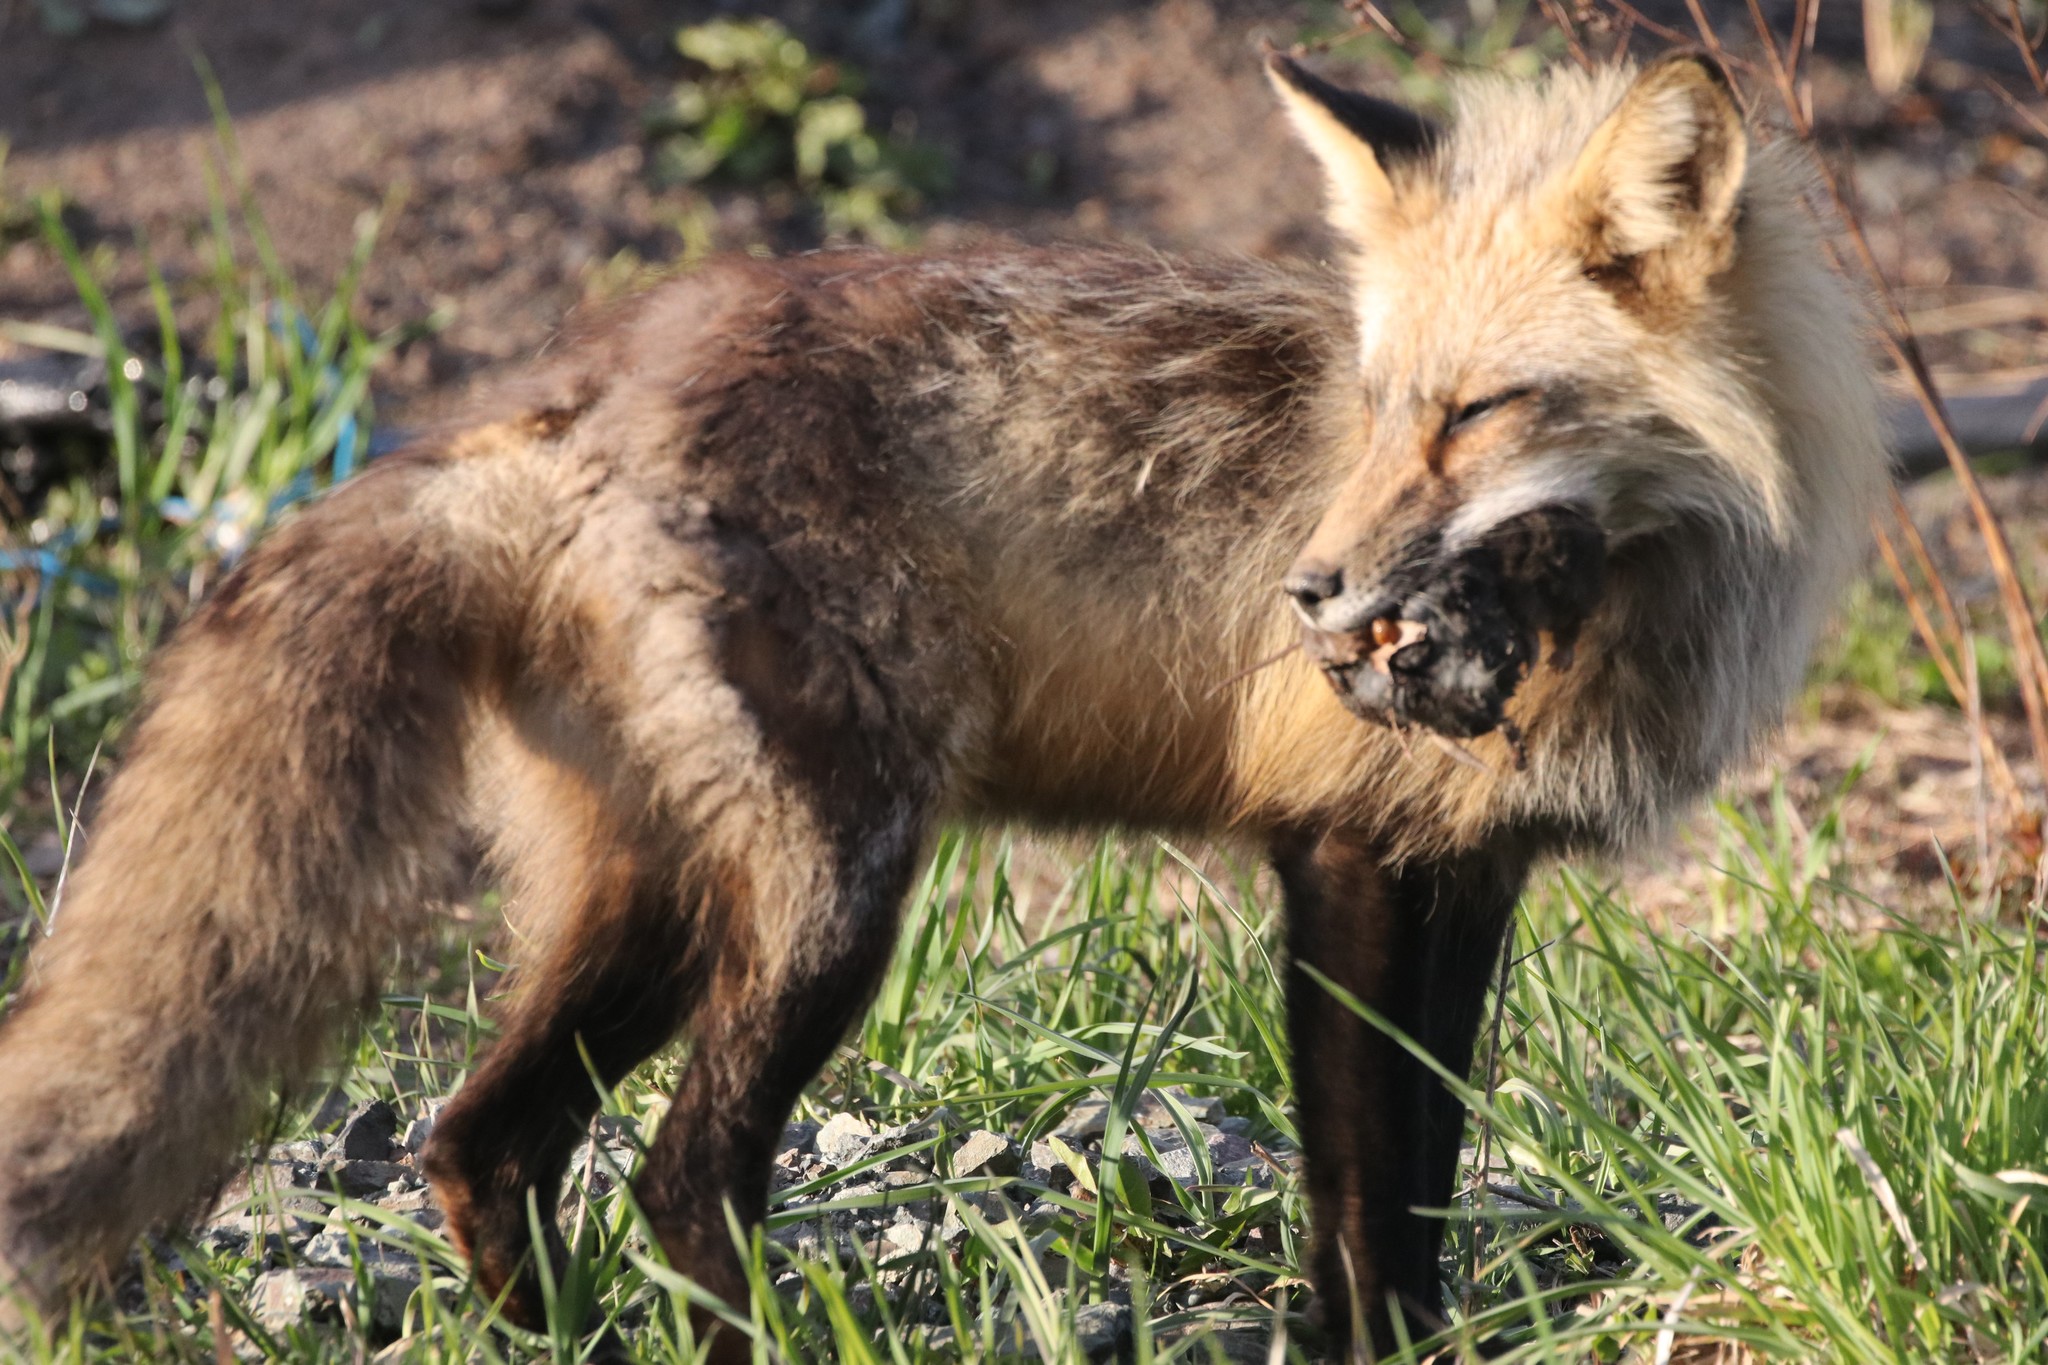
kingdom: Animalia
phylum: Chordata
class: Mammalia
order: Carnivora
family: Canidae
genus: Vulpes
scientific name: Vulpes vulpes
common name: Red fox
